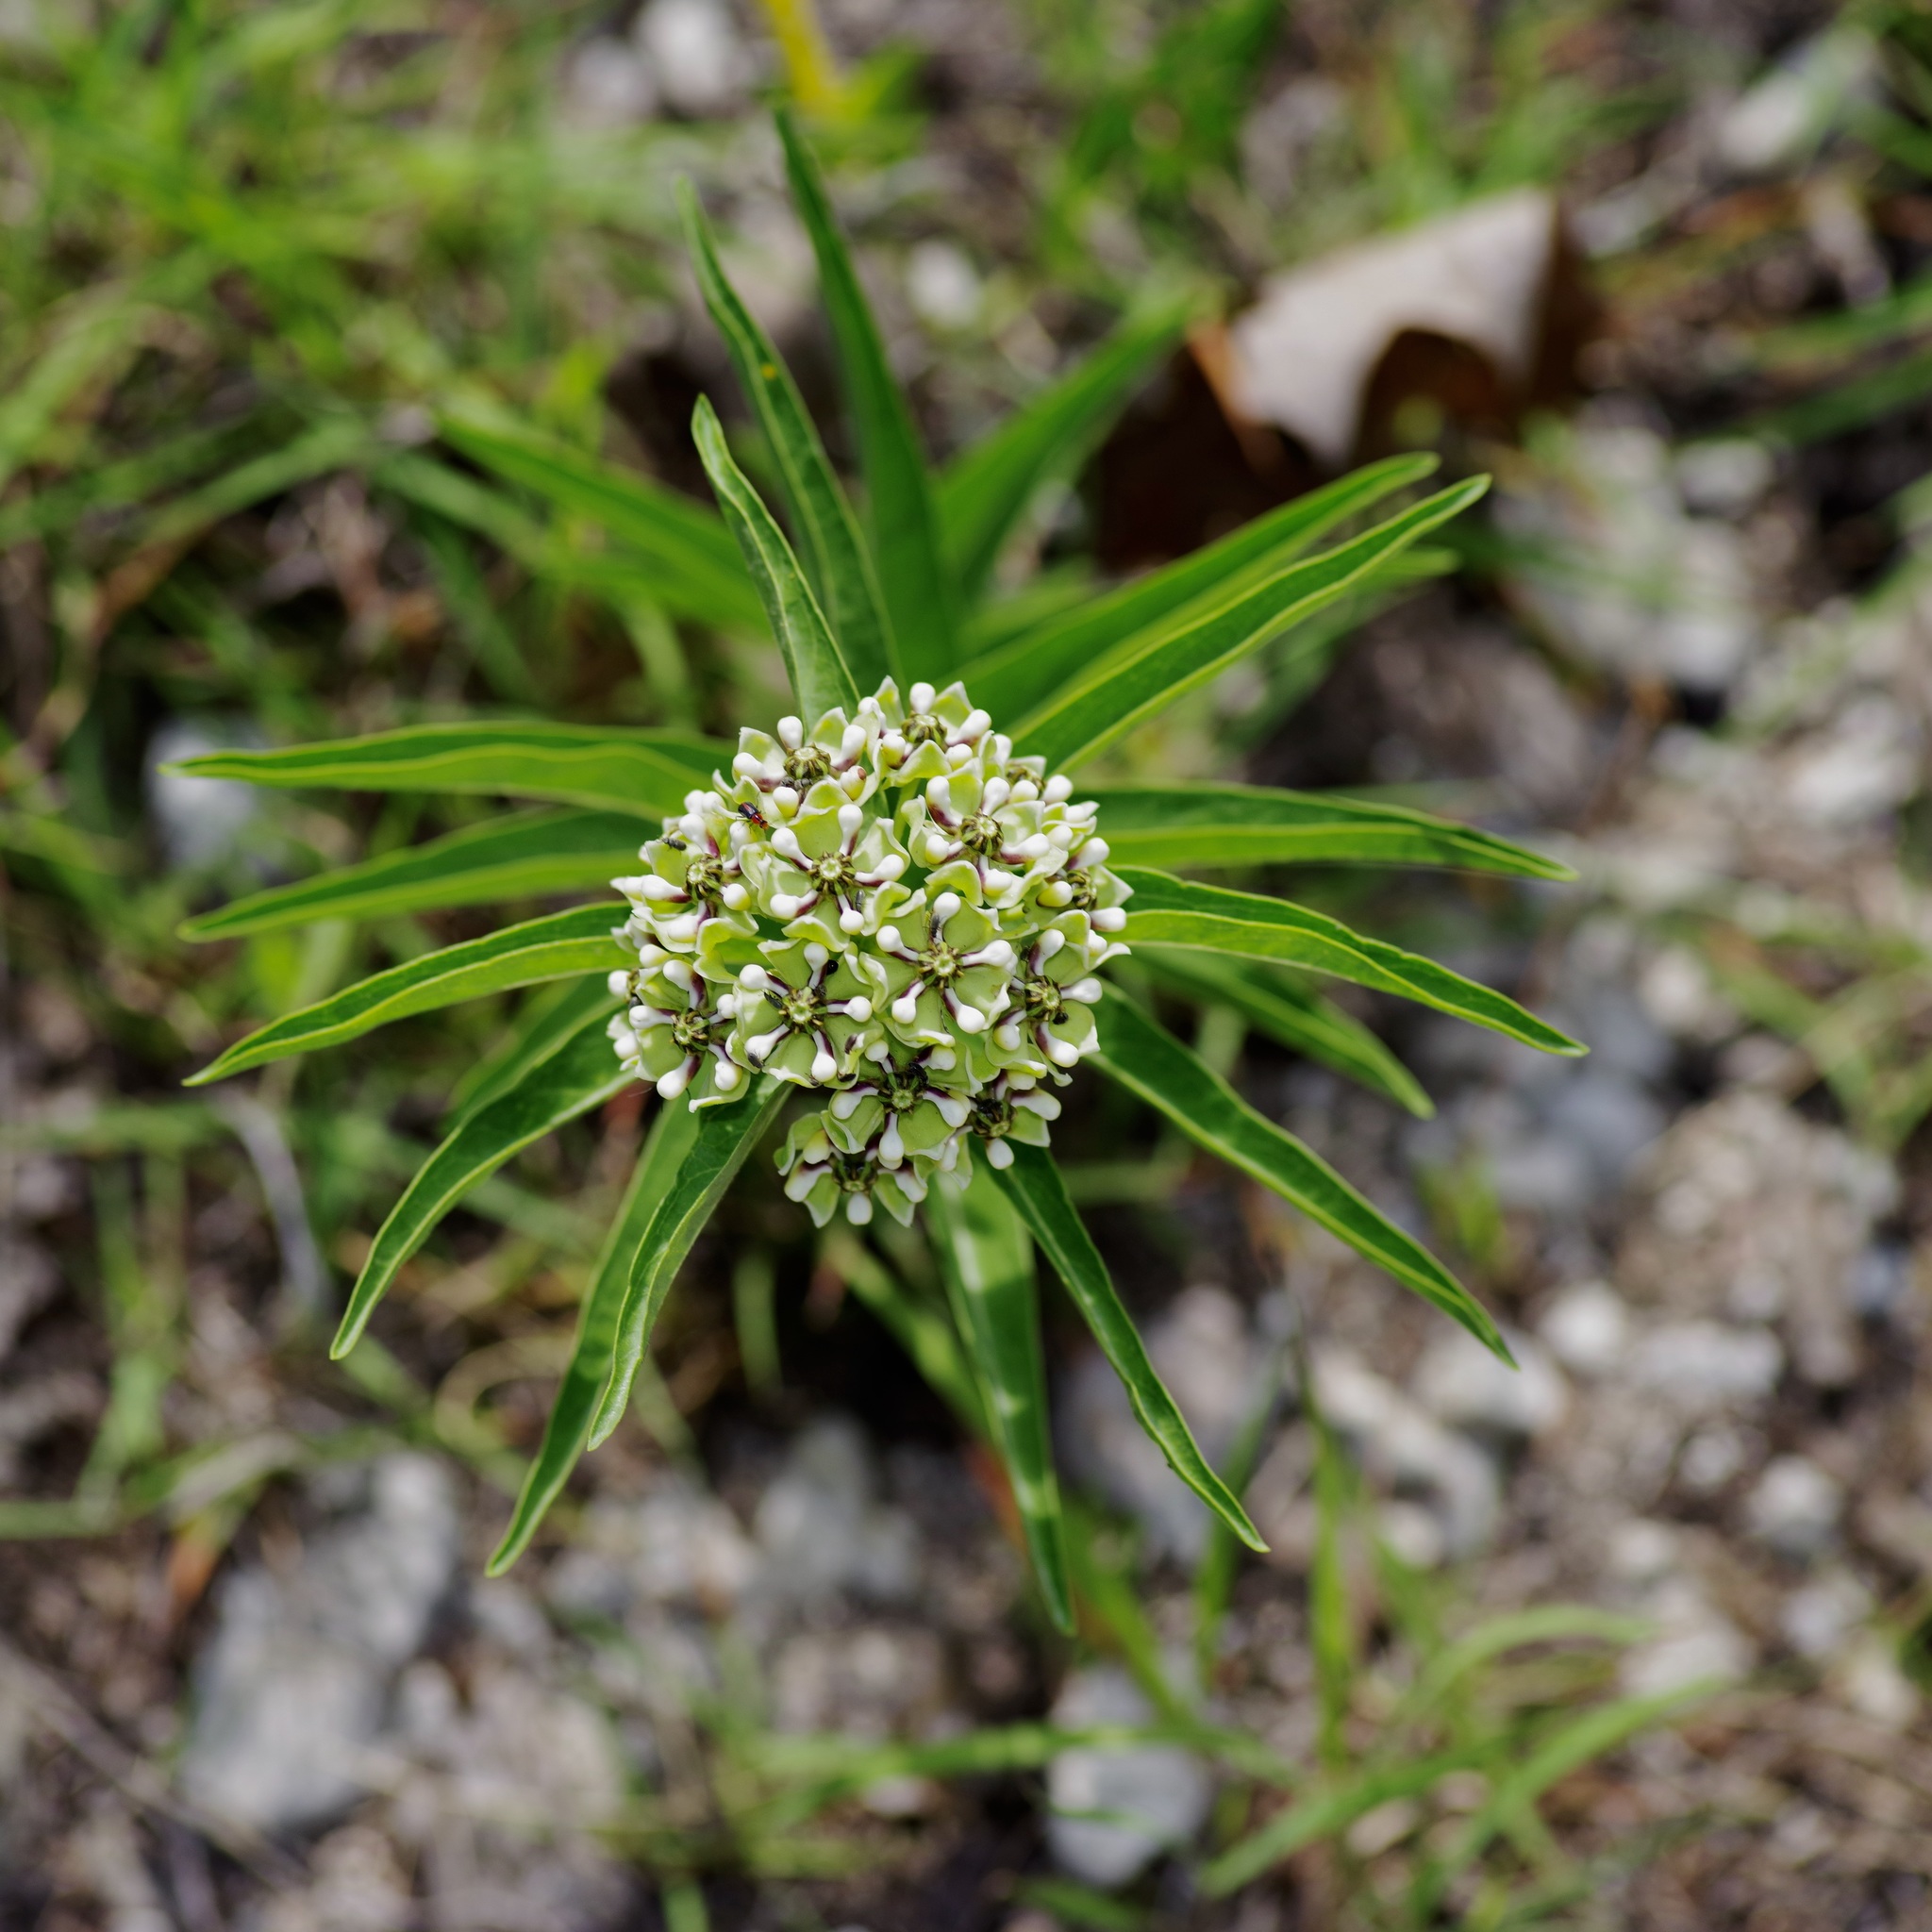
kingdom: Plantae
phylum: Tracheophyta
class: Magnoliopsida
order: Gentianales
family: Apocynaceae
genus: Asclepias
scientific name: Asclepias asperula
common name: Antelope horns
